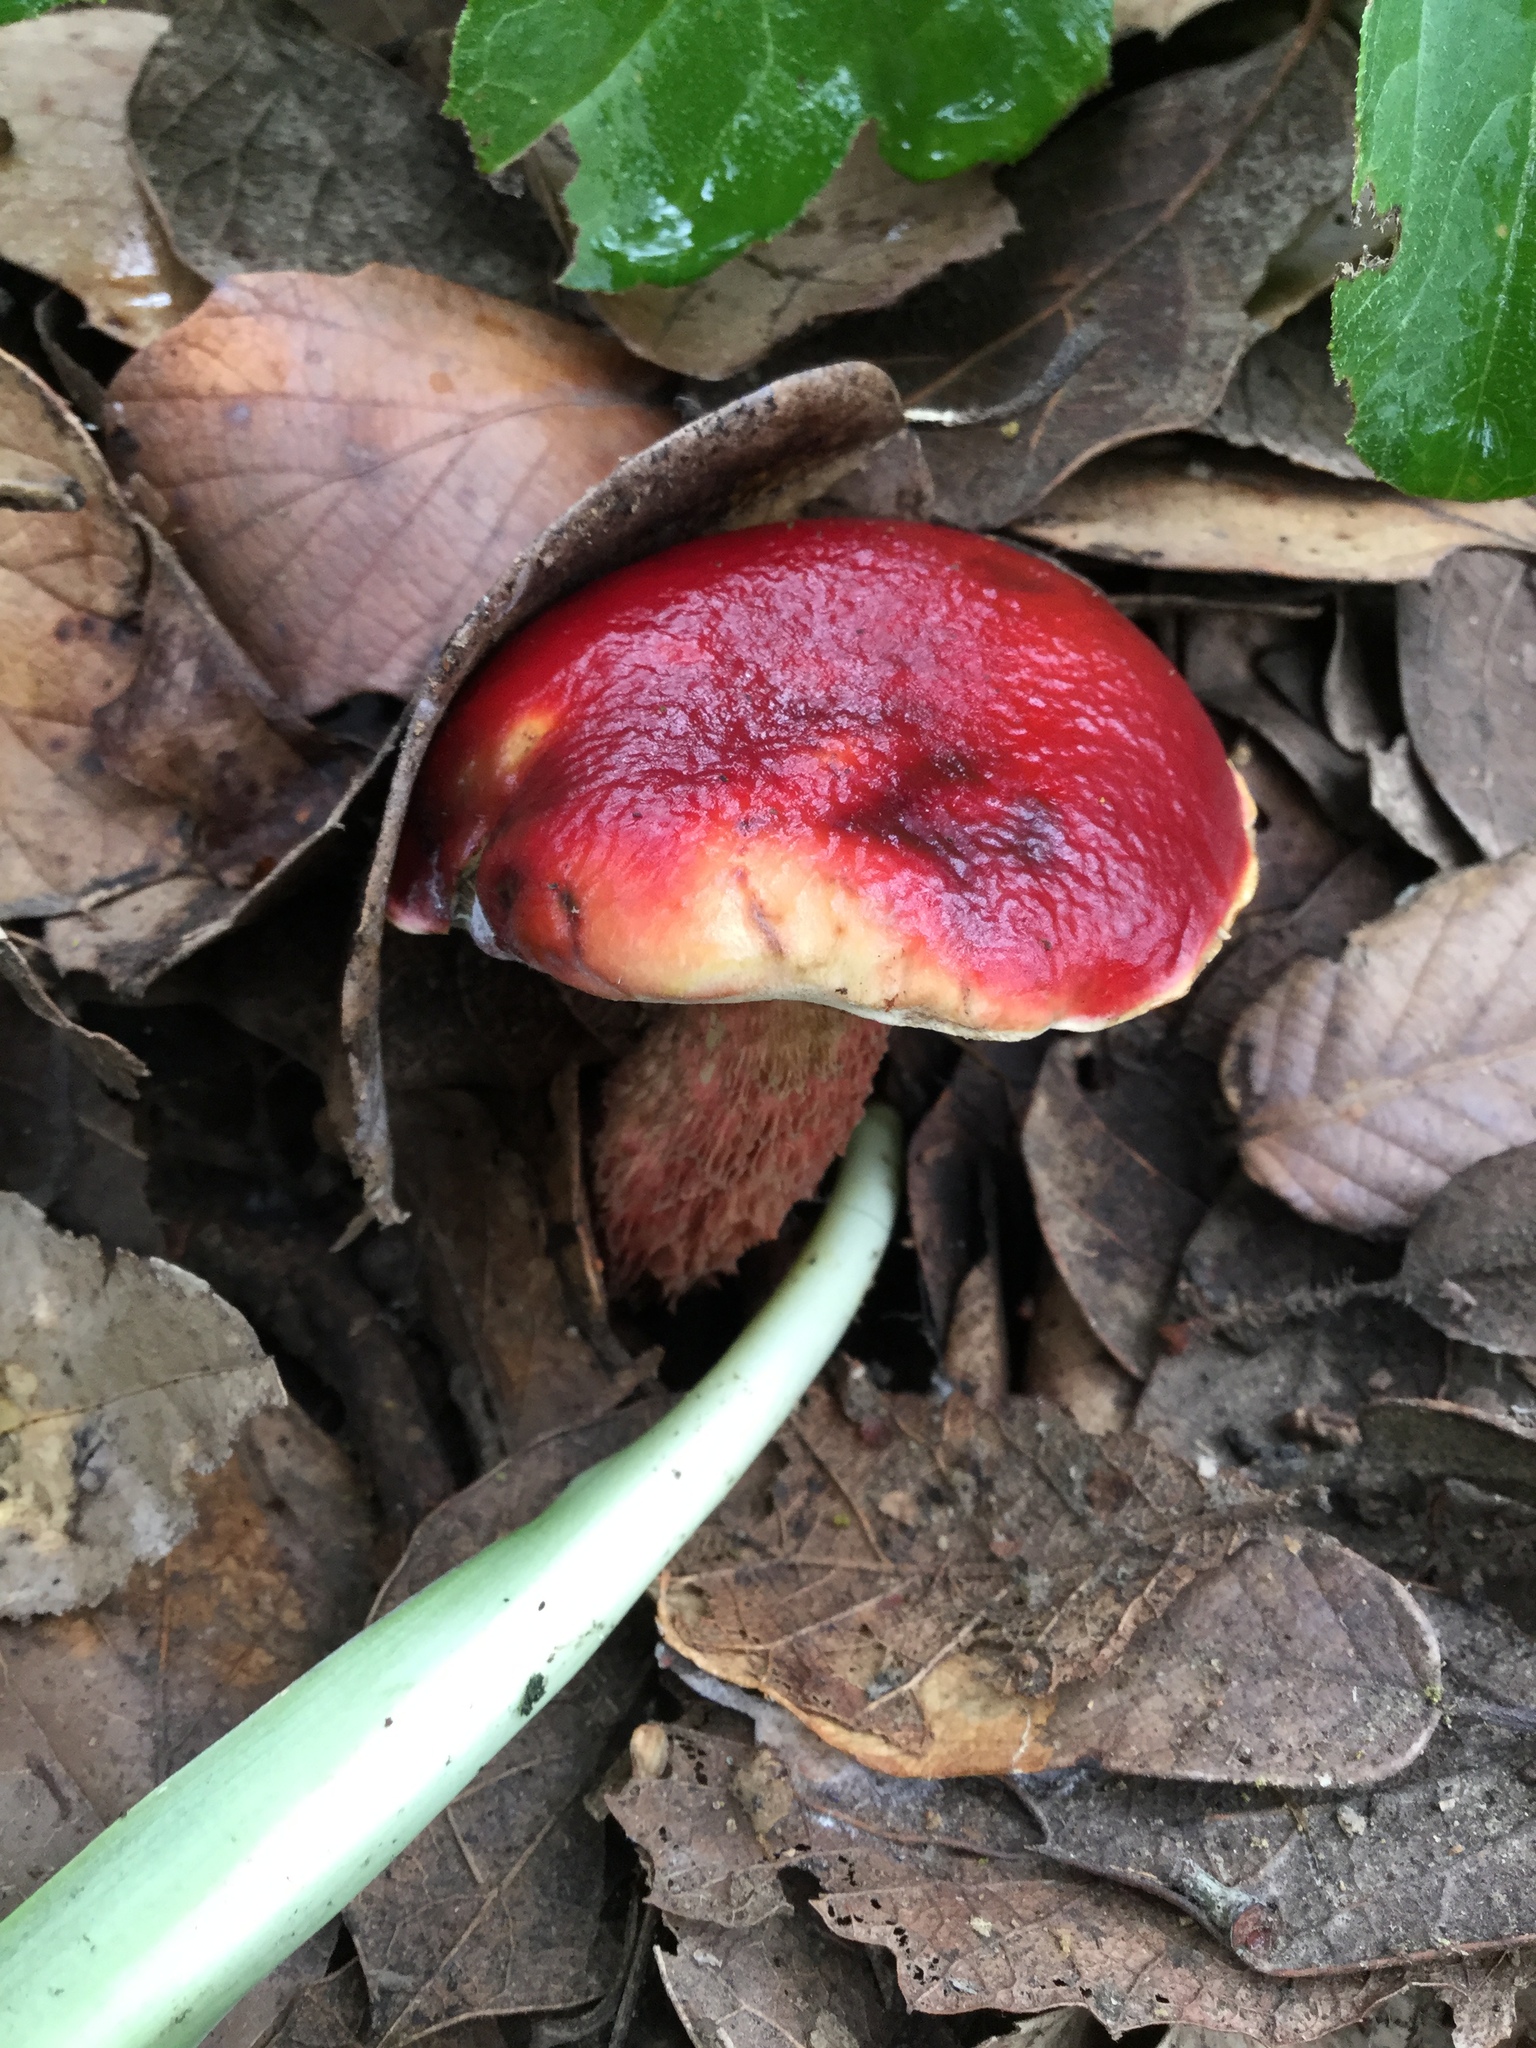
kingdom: Fungi
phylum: Basidiomycota
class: Agaricomycetes
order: Boletales
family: Boletaceae
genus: Butyriboletus
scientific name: Butyriboletus frostii
